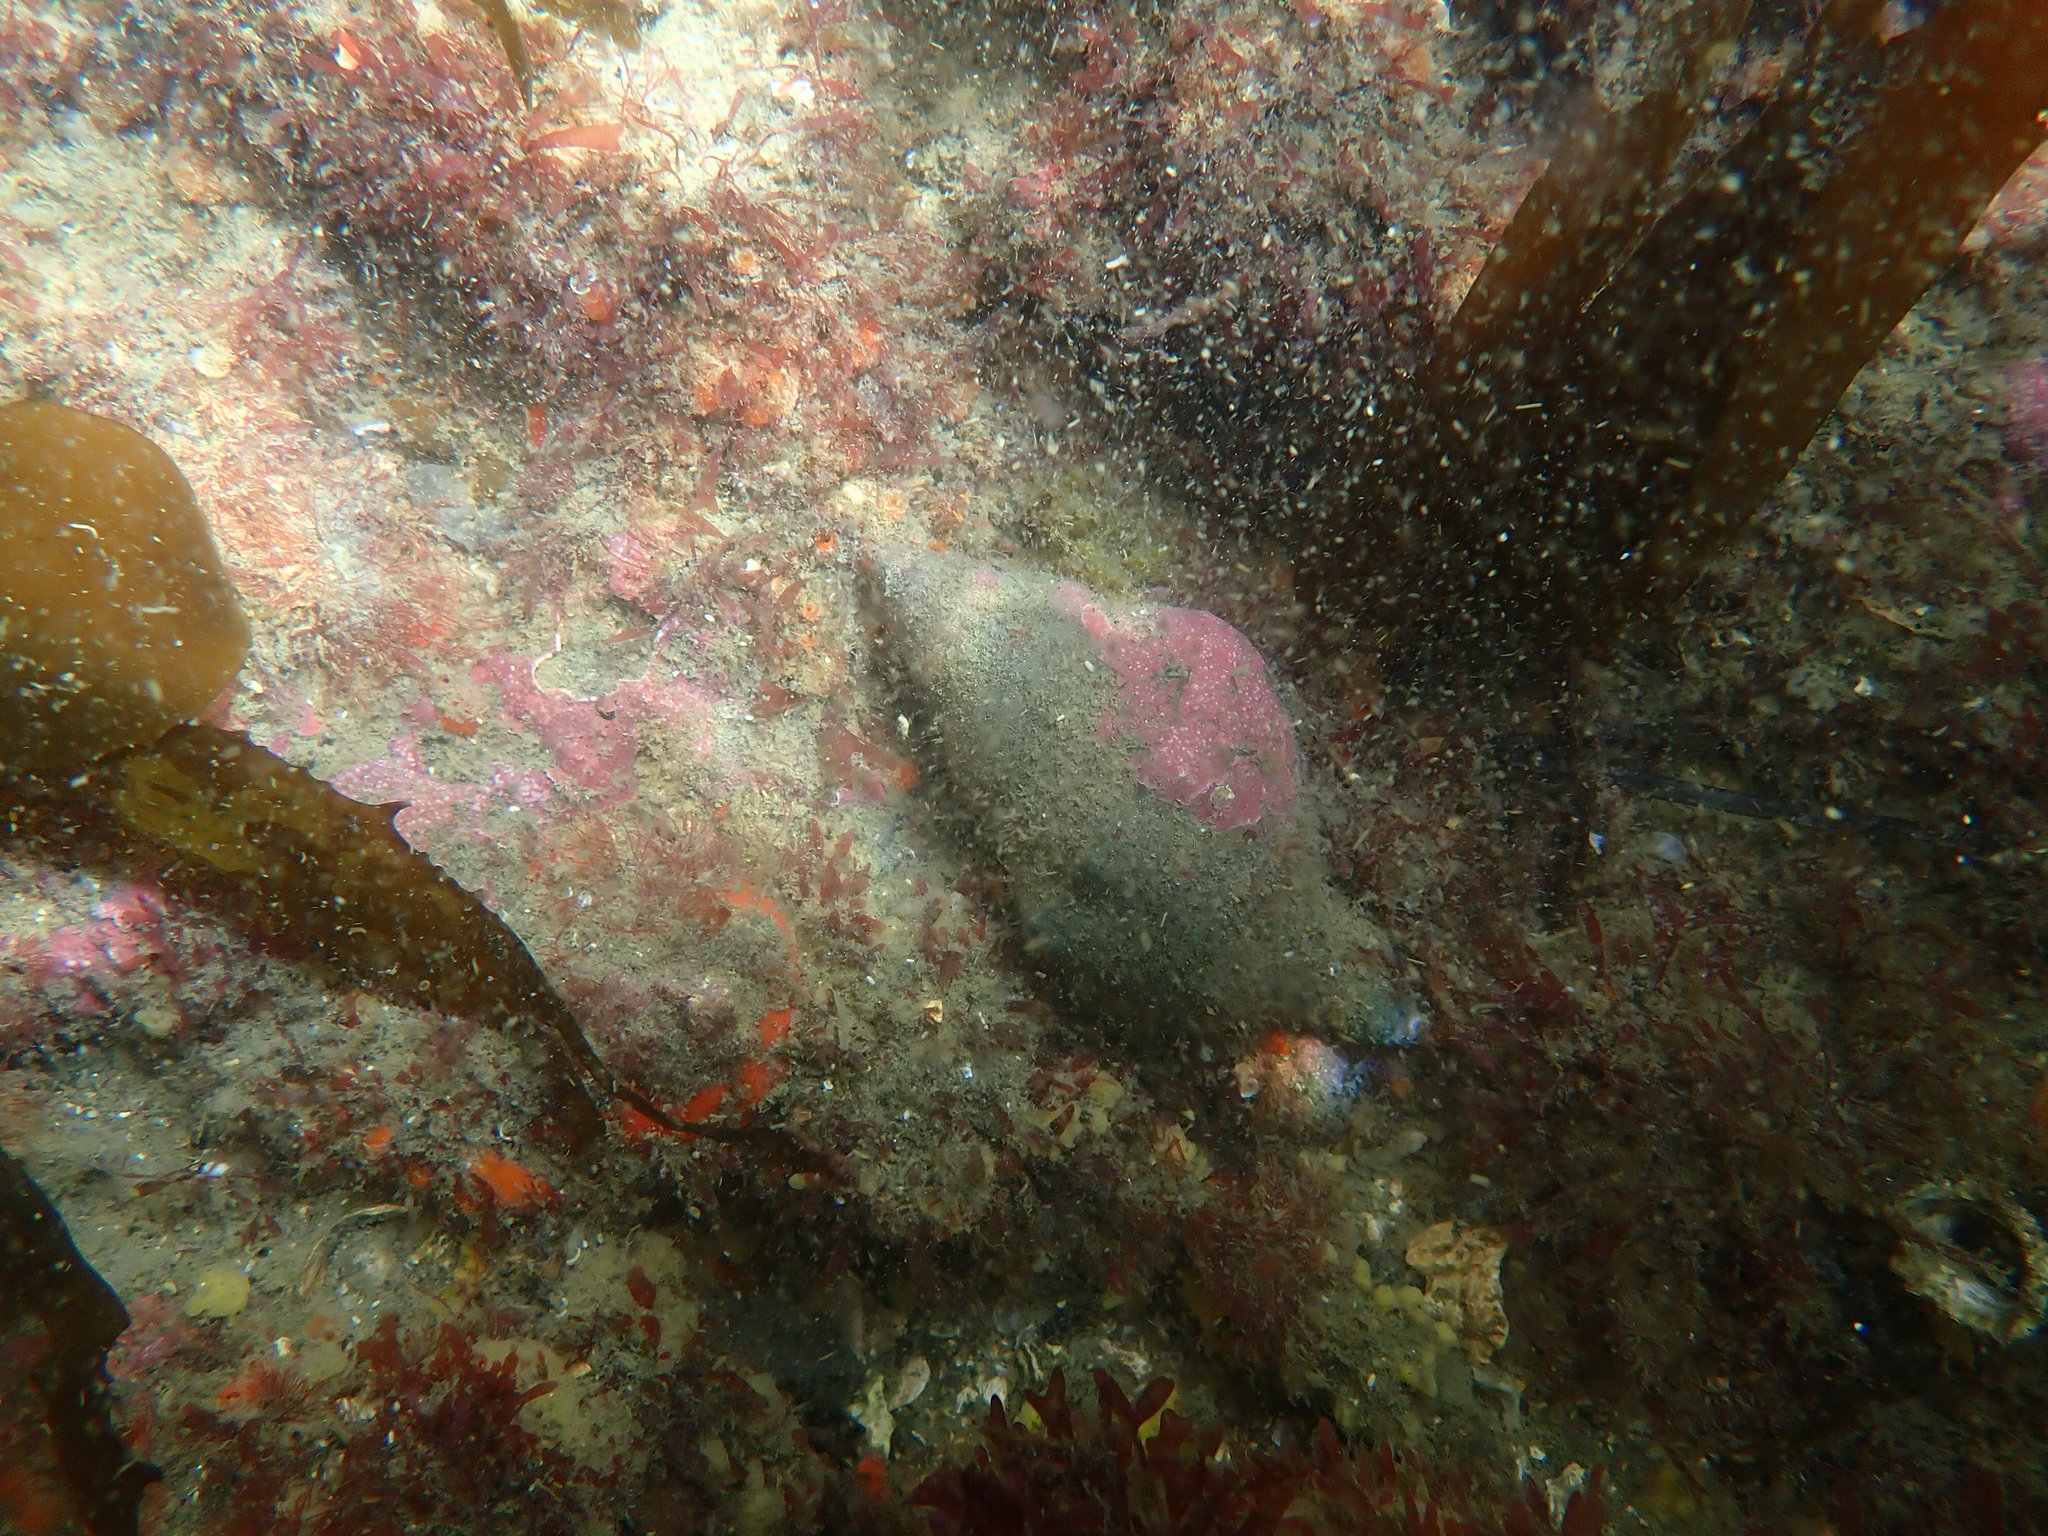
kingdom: Animalia
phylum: Mollusca
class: Gastropoda
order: Neogastropoda
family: Austrosiphonidae
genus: Penion
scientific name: Penion sulcatus
